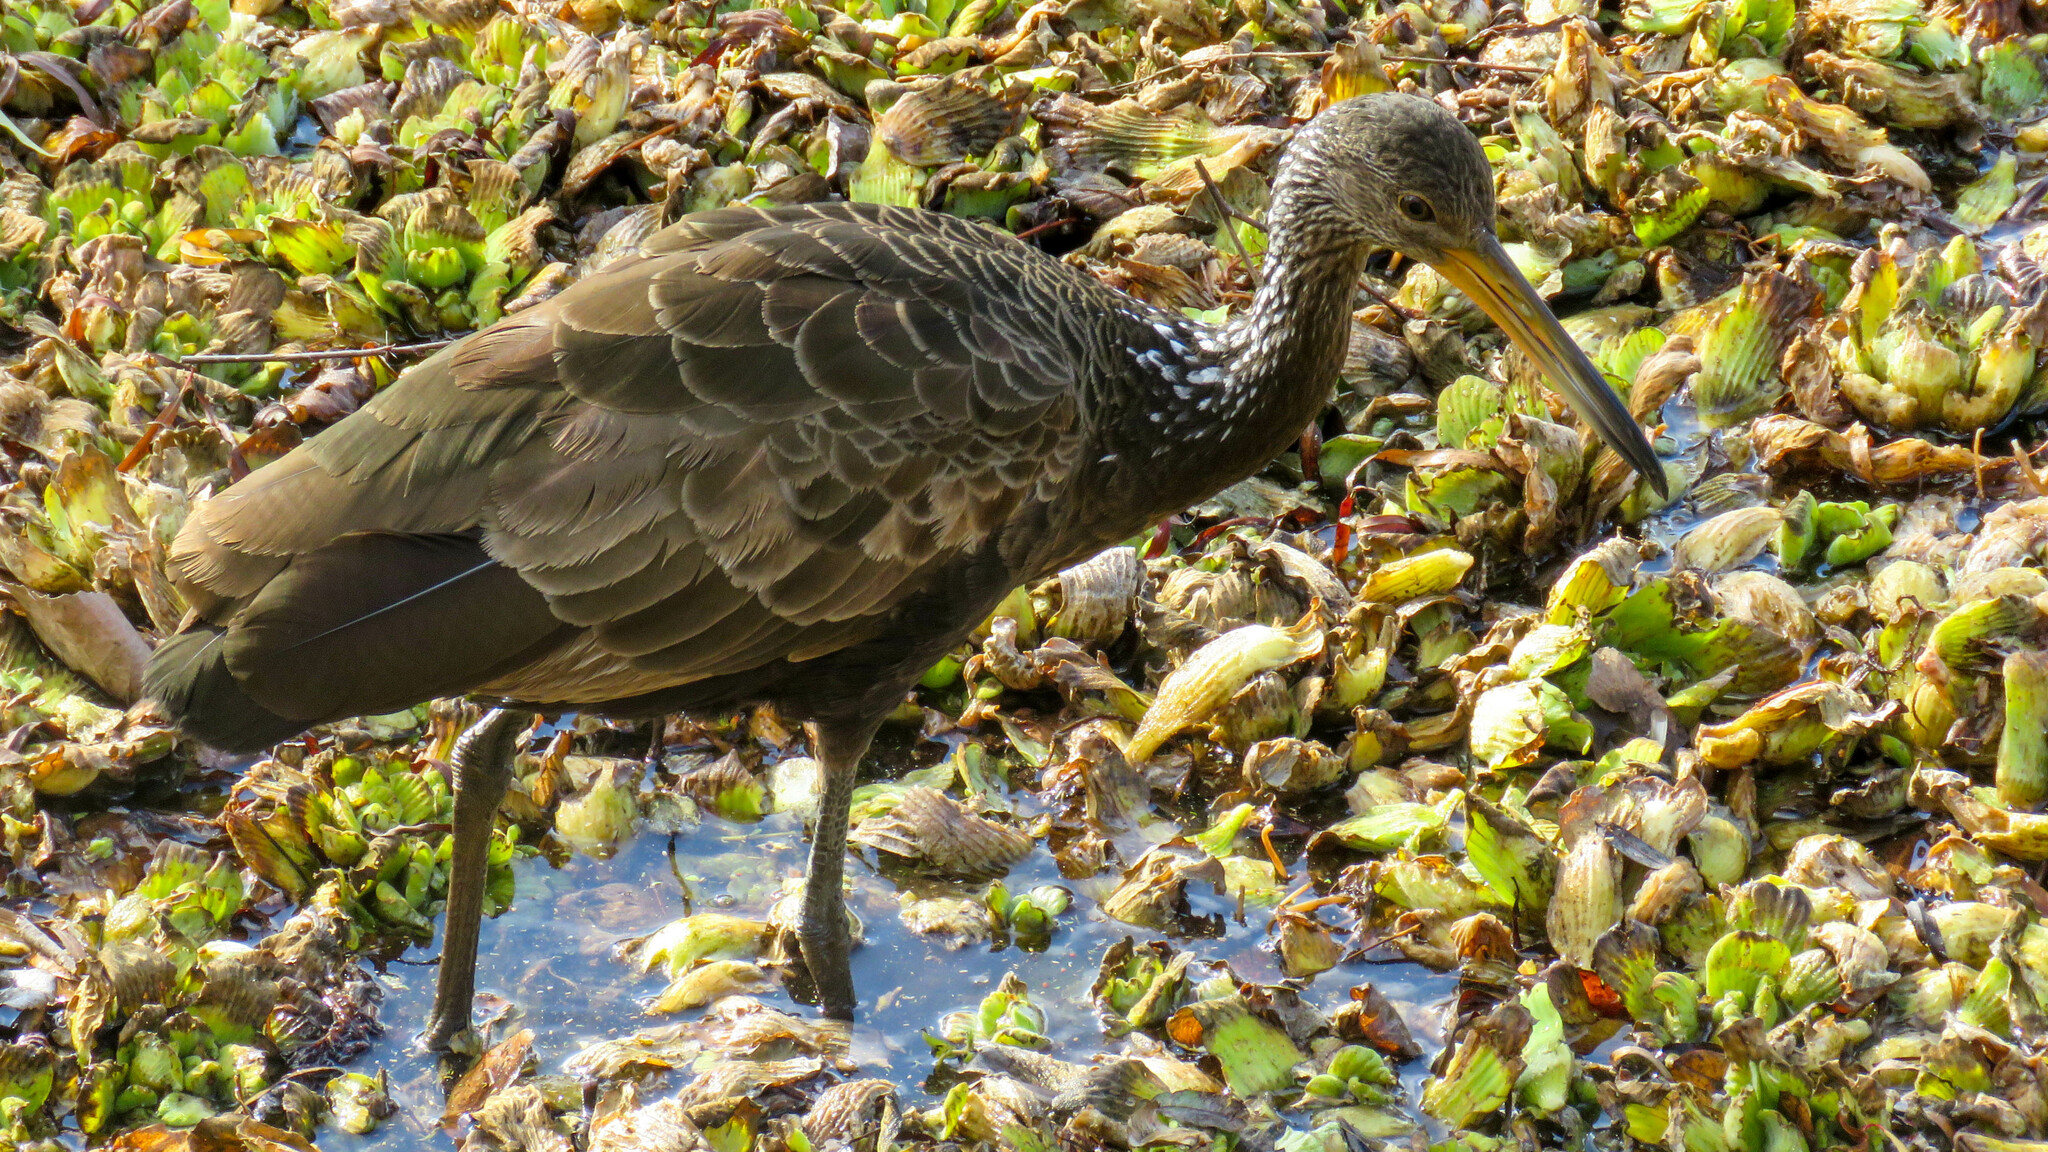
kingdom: Animalia
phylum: Chordata
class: Aves
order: Gruiformes
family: Aramidae
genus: Aramus
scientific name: Aramus guarauna
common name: Limpkin
